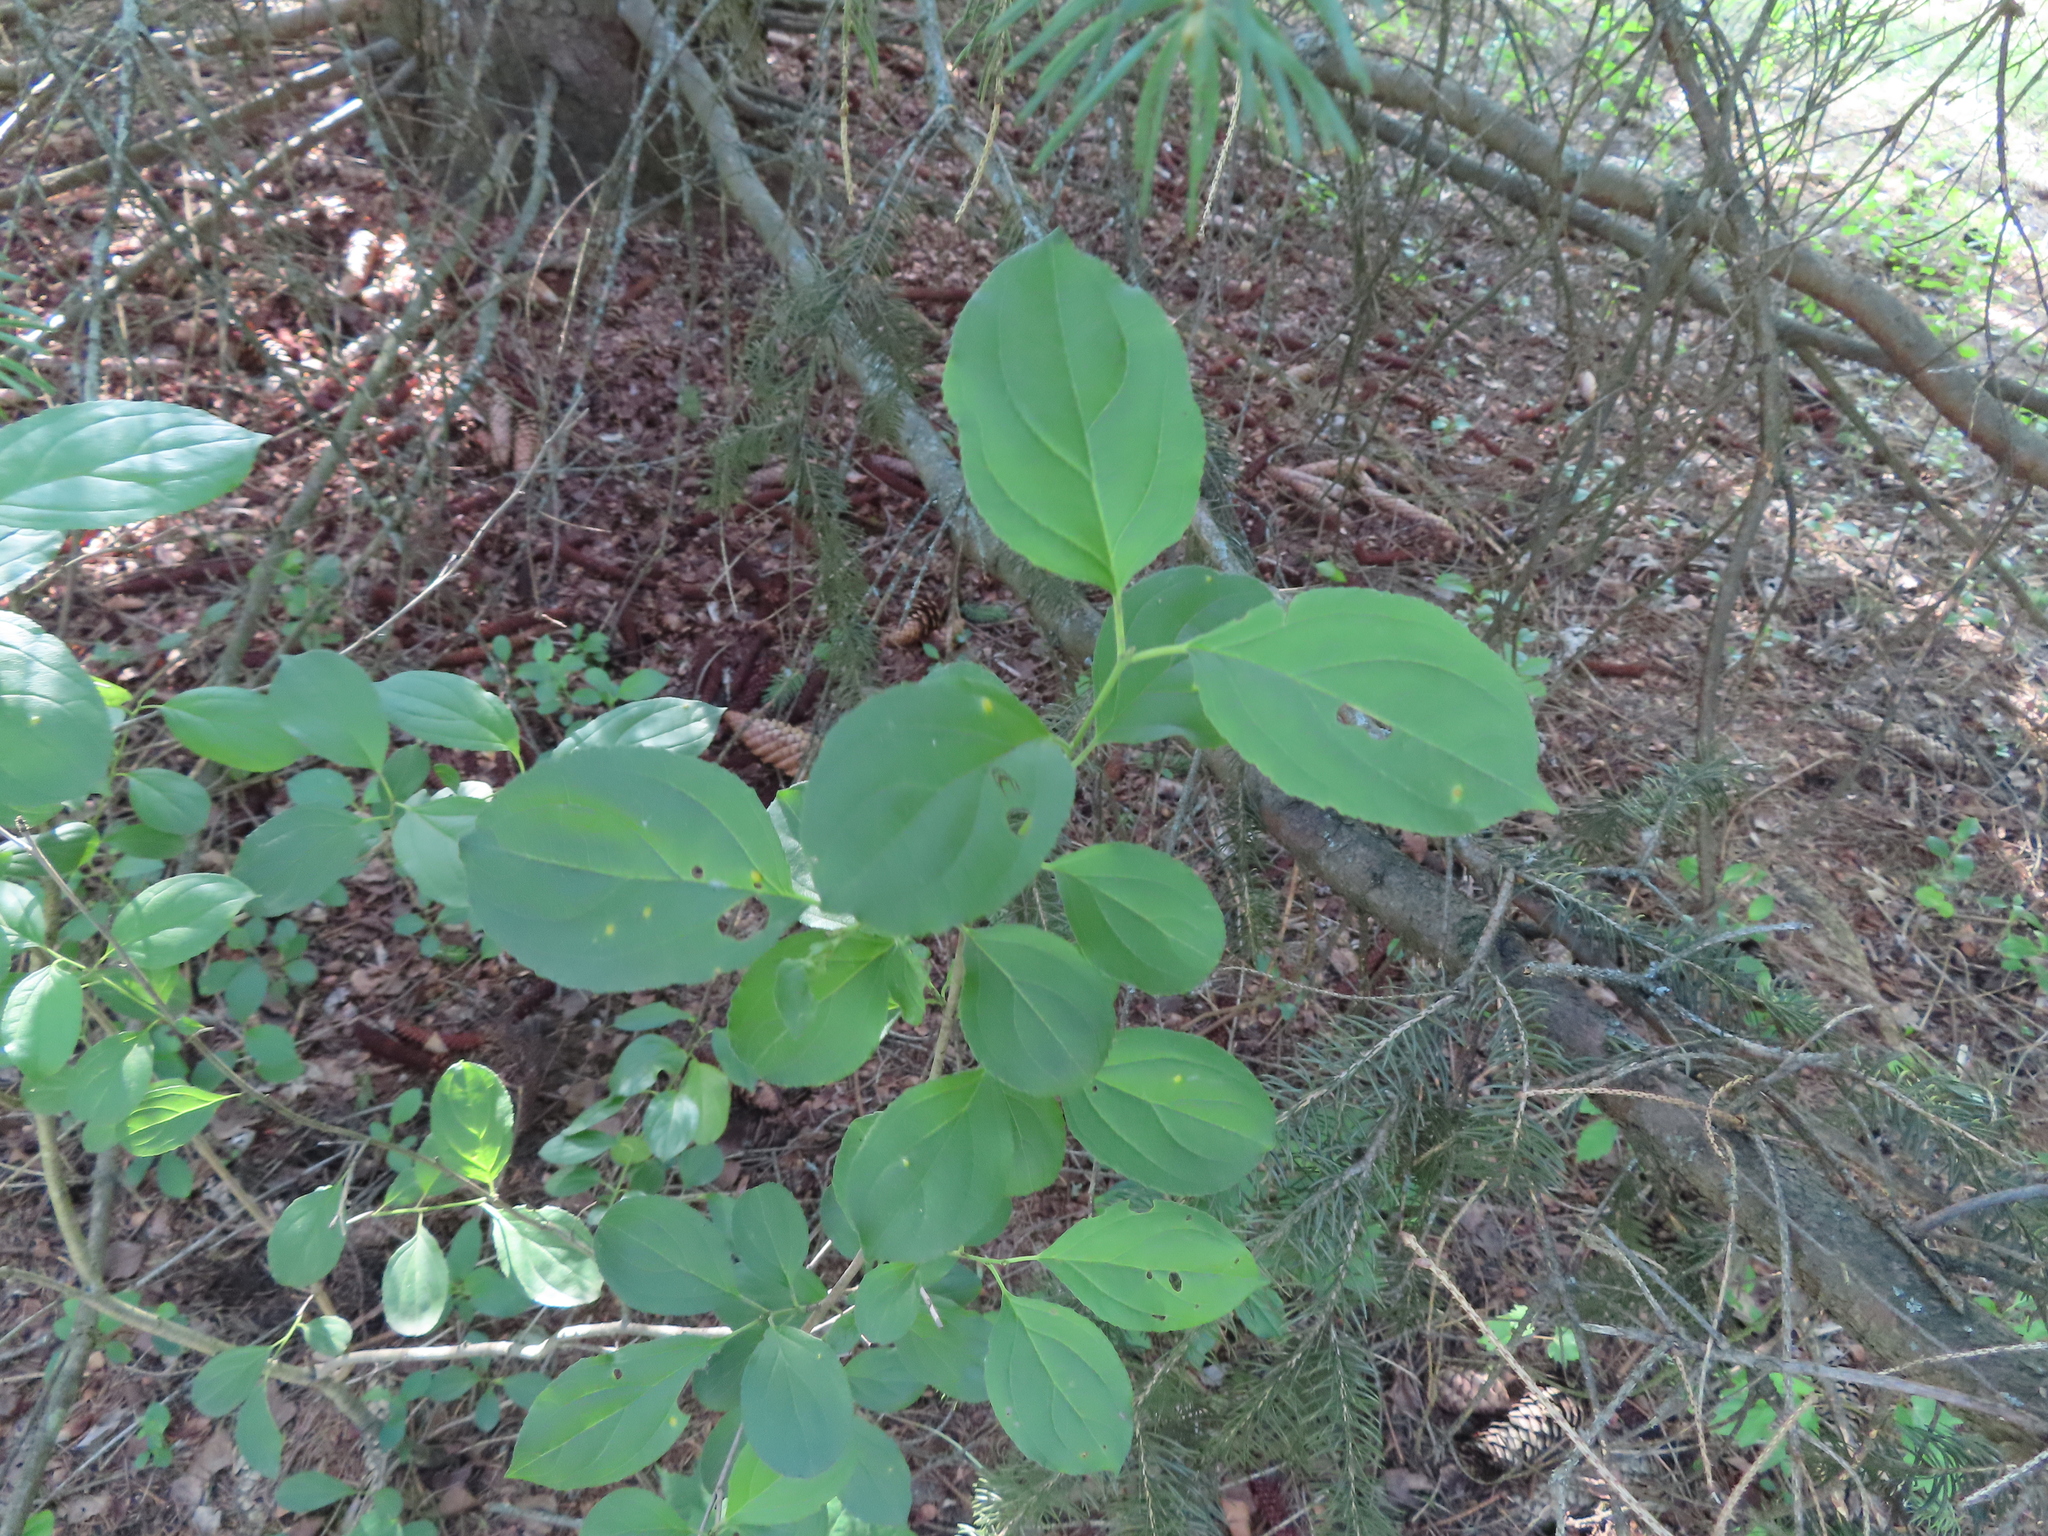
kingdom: Plantae
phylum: Tracheophyta
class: Magnoliopsida
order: Rosales
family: Rhamnaceae
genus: Rhamnus
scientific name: Rhamnus cathartica
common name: Common buckthorn
